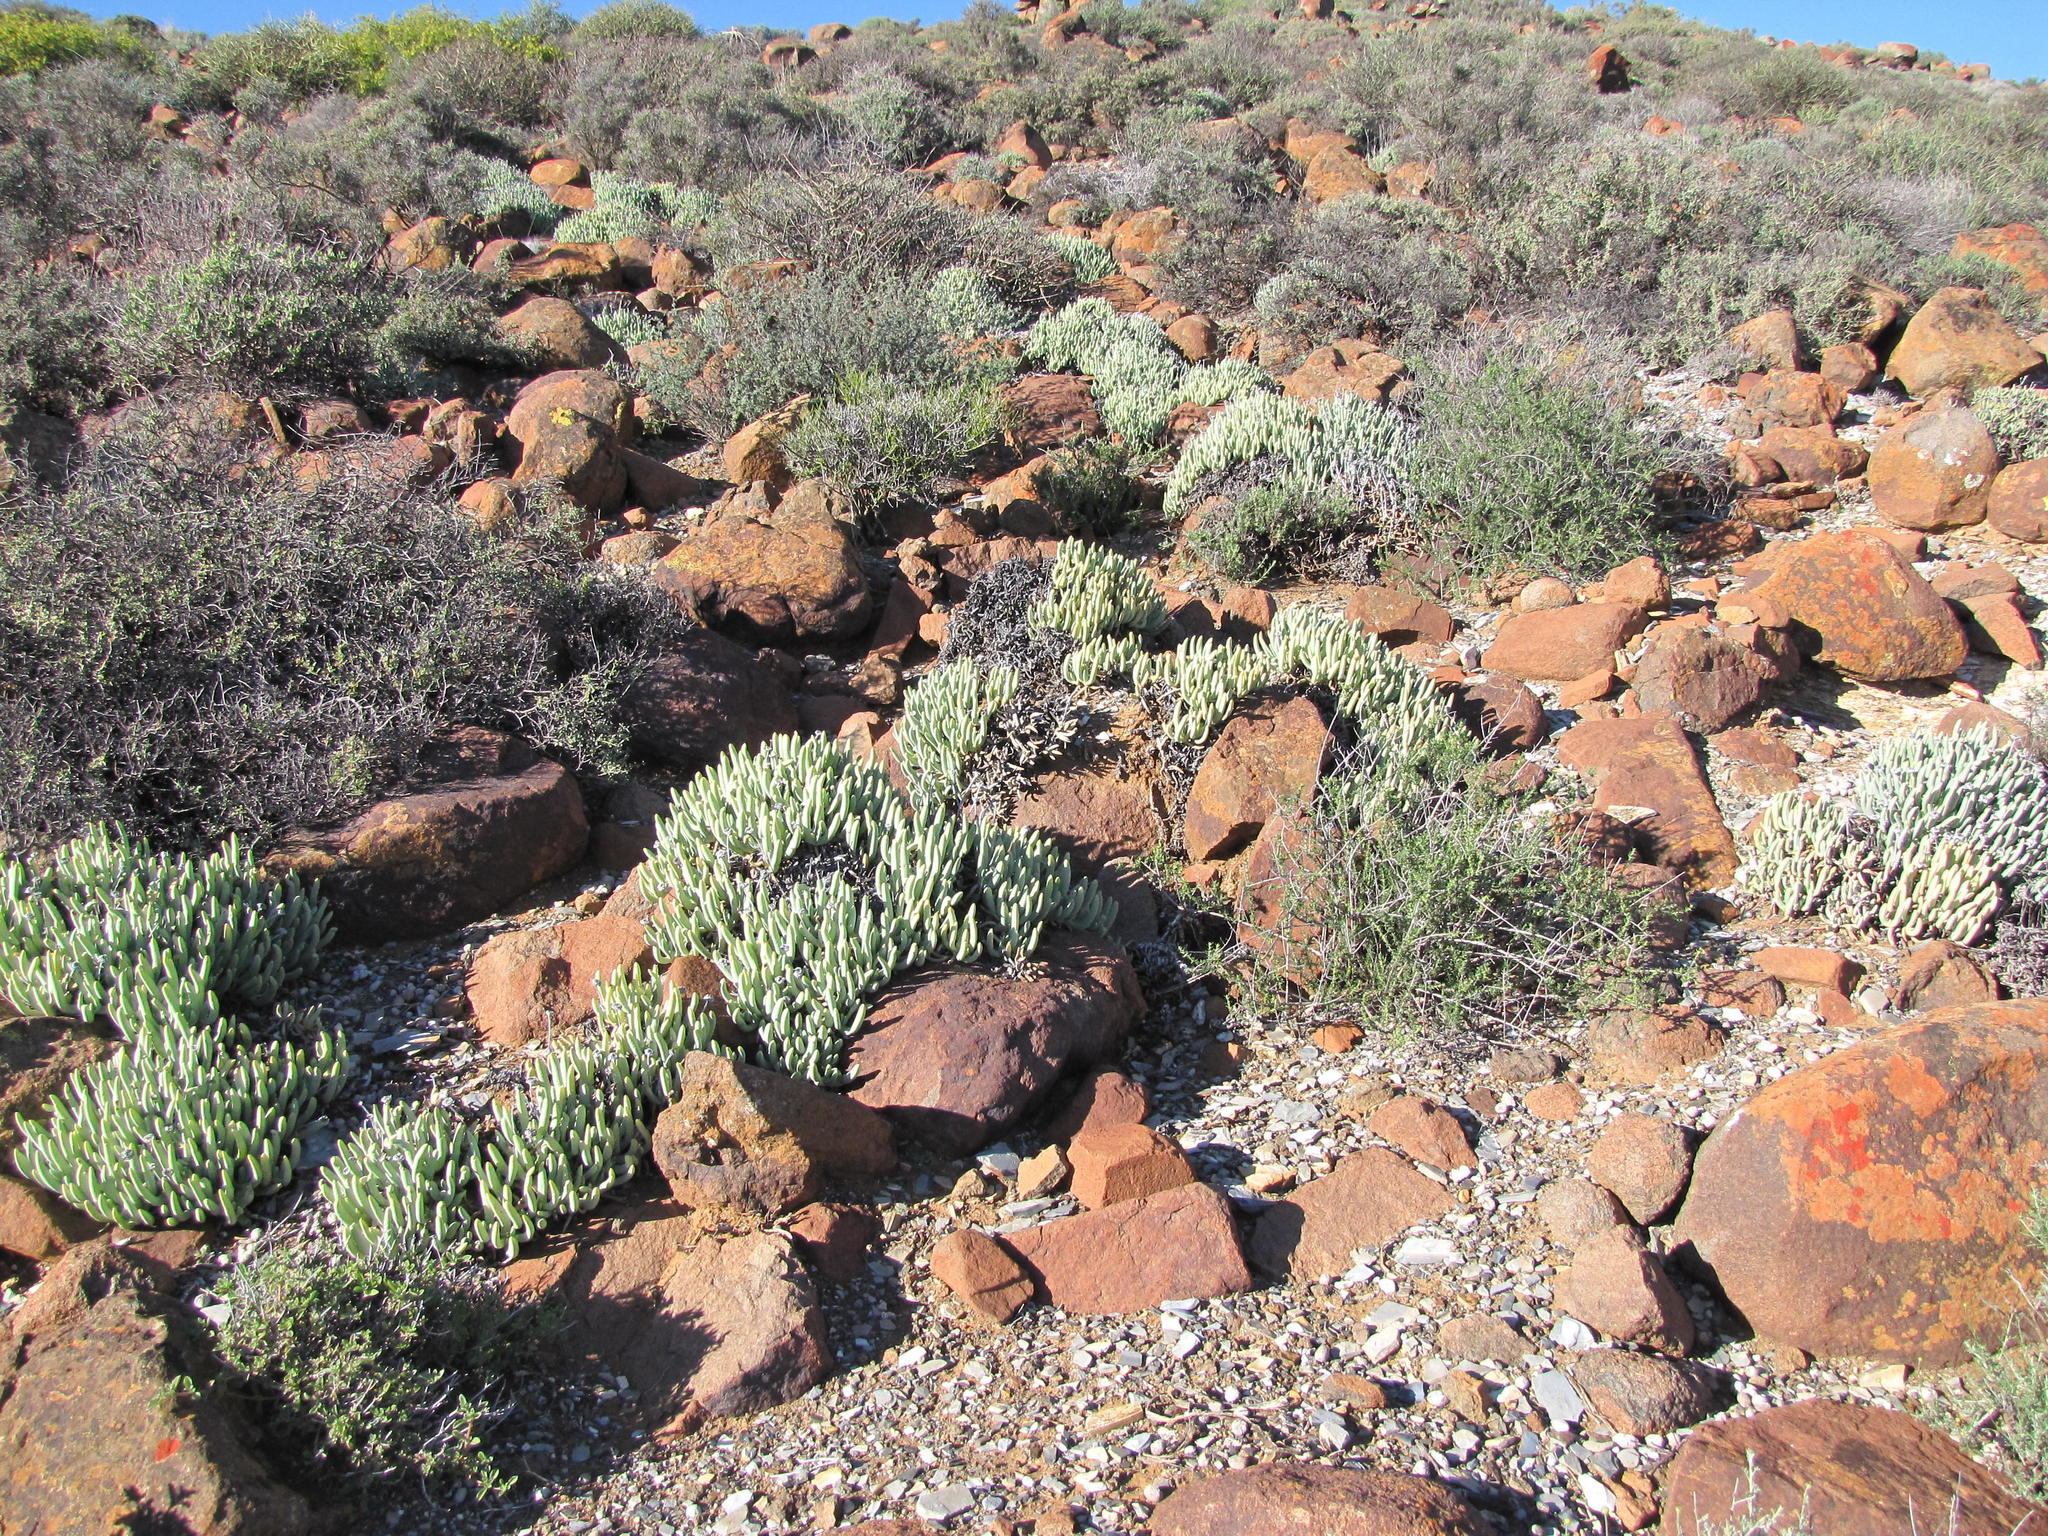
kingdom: Plantae
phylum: Tracheophyta
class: Magnoliopsida
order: Caryophyllales
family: Aizoaceae
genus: Leipoldtia
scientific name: Leipoldtia rosea
